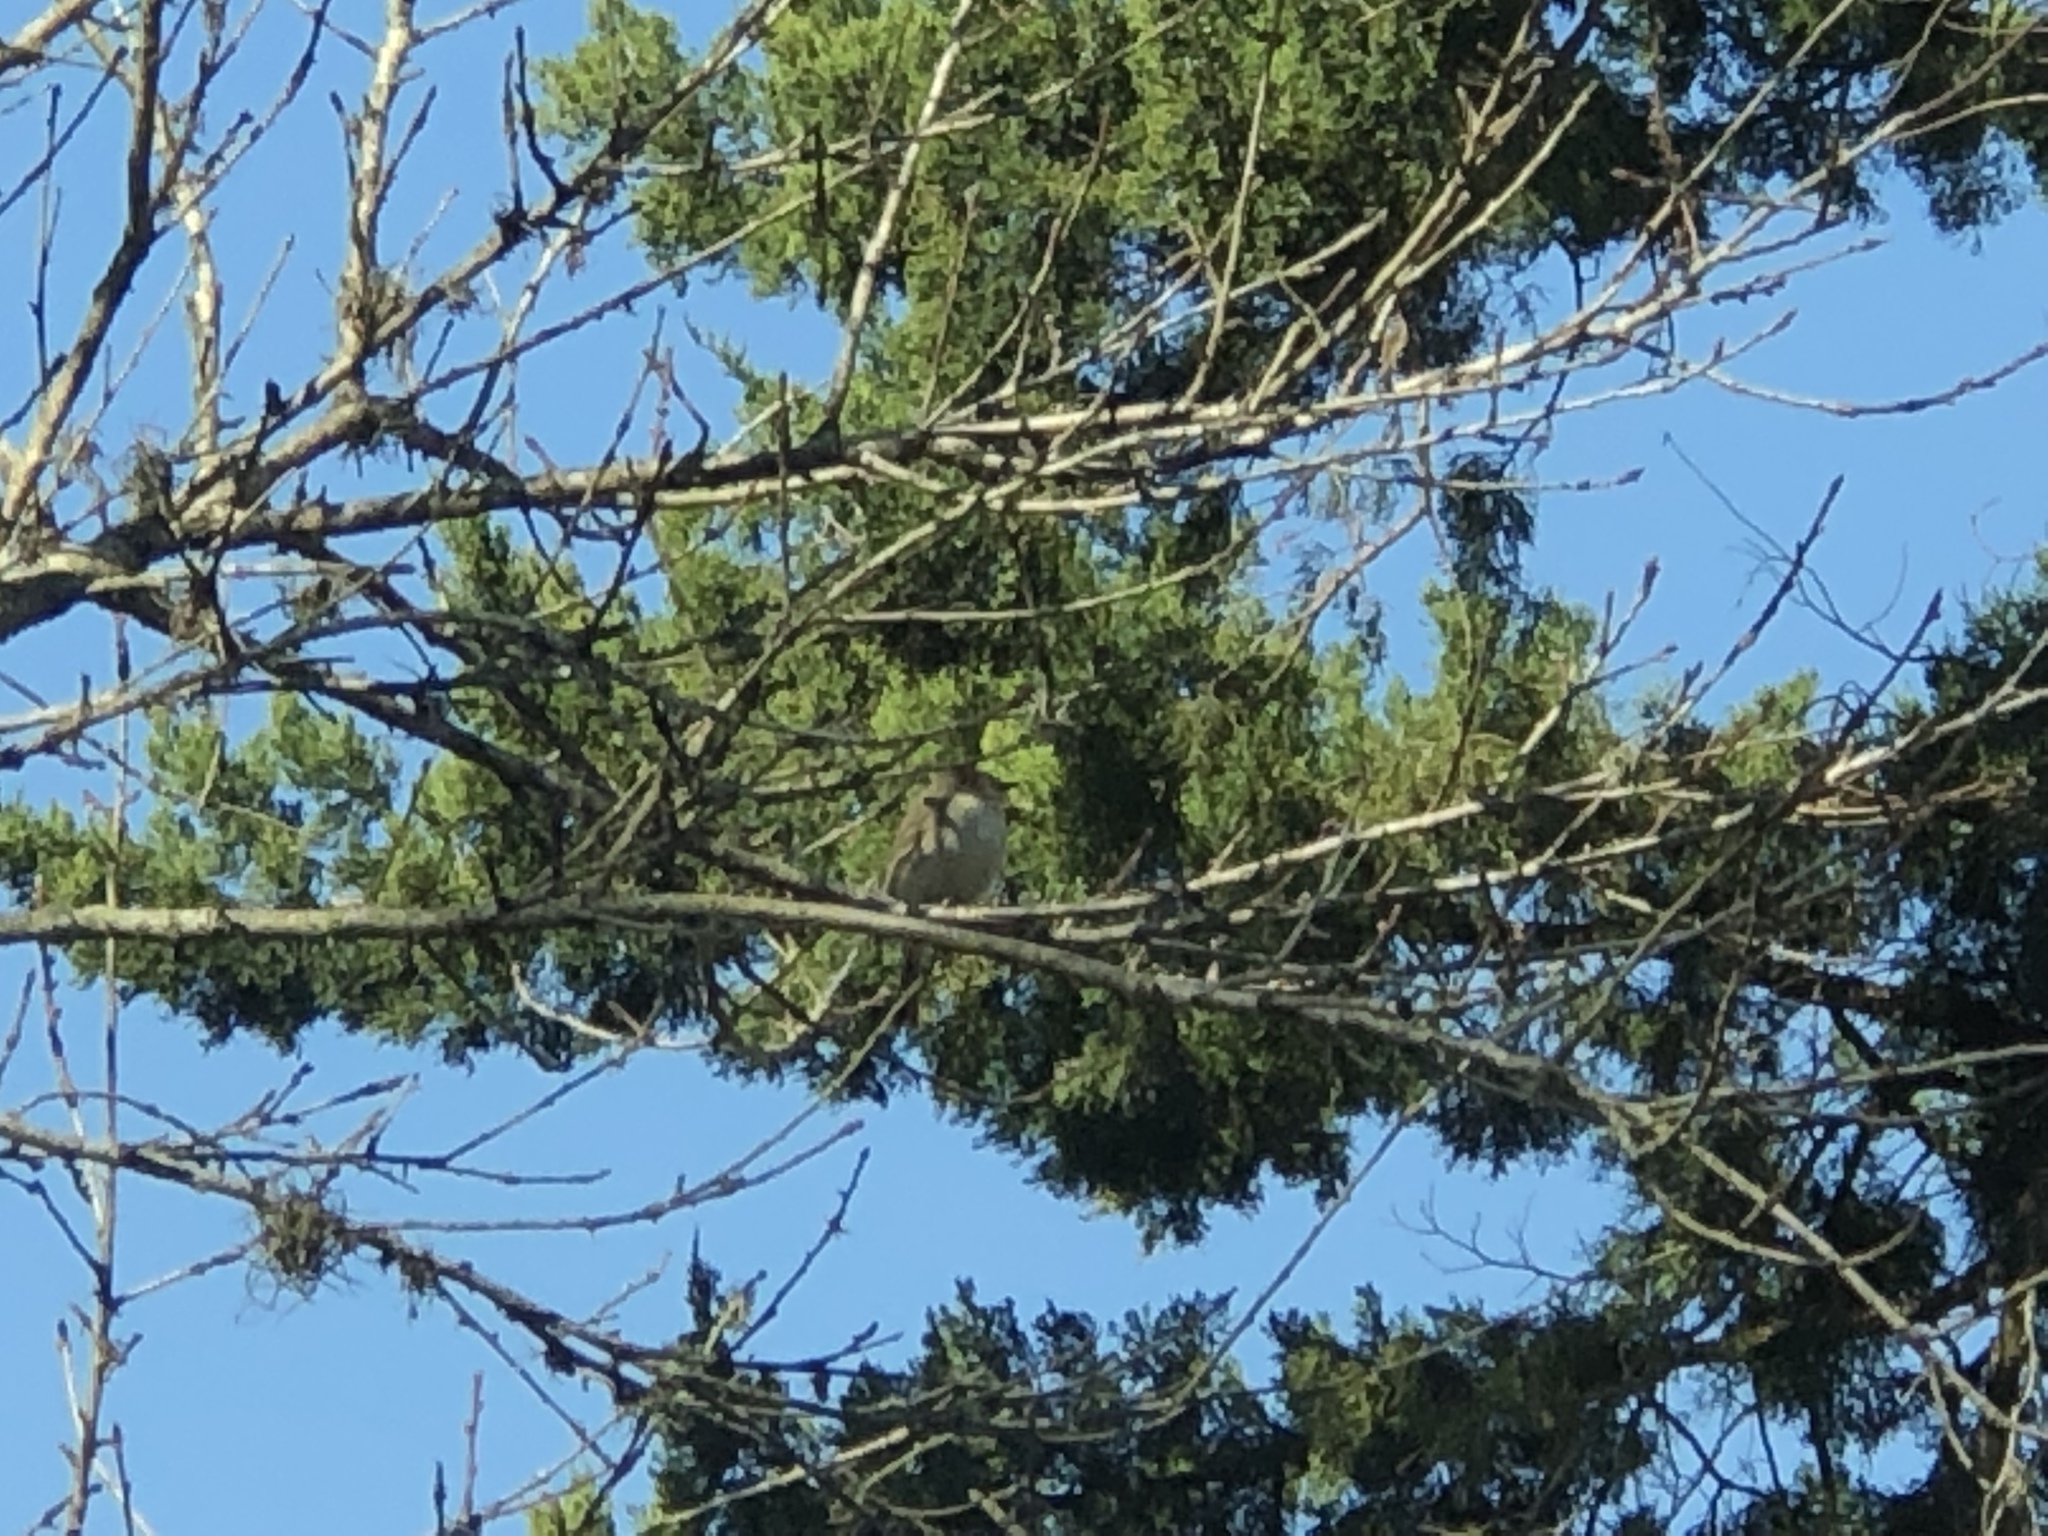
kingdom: Animalia
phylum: Chordata
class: Aves
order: Passeriformes
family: Tyrannidae
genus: Sayornis
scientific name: Sayornis phoebe
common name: Eastern phoebe
